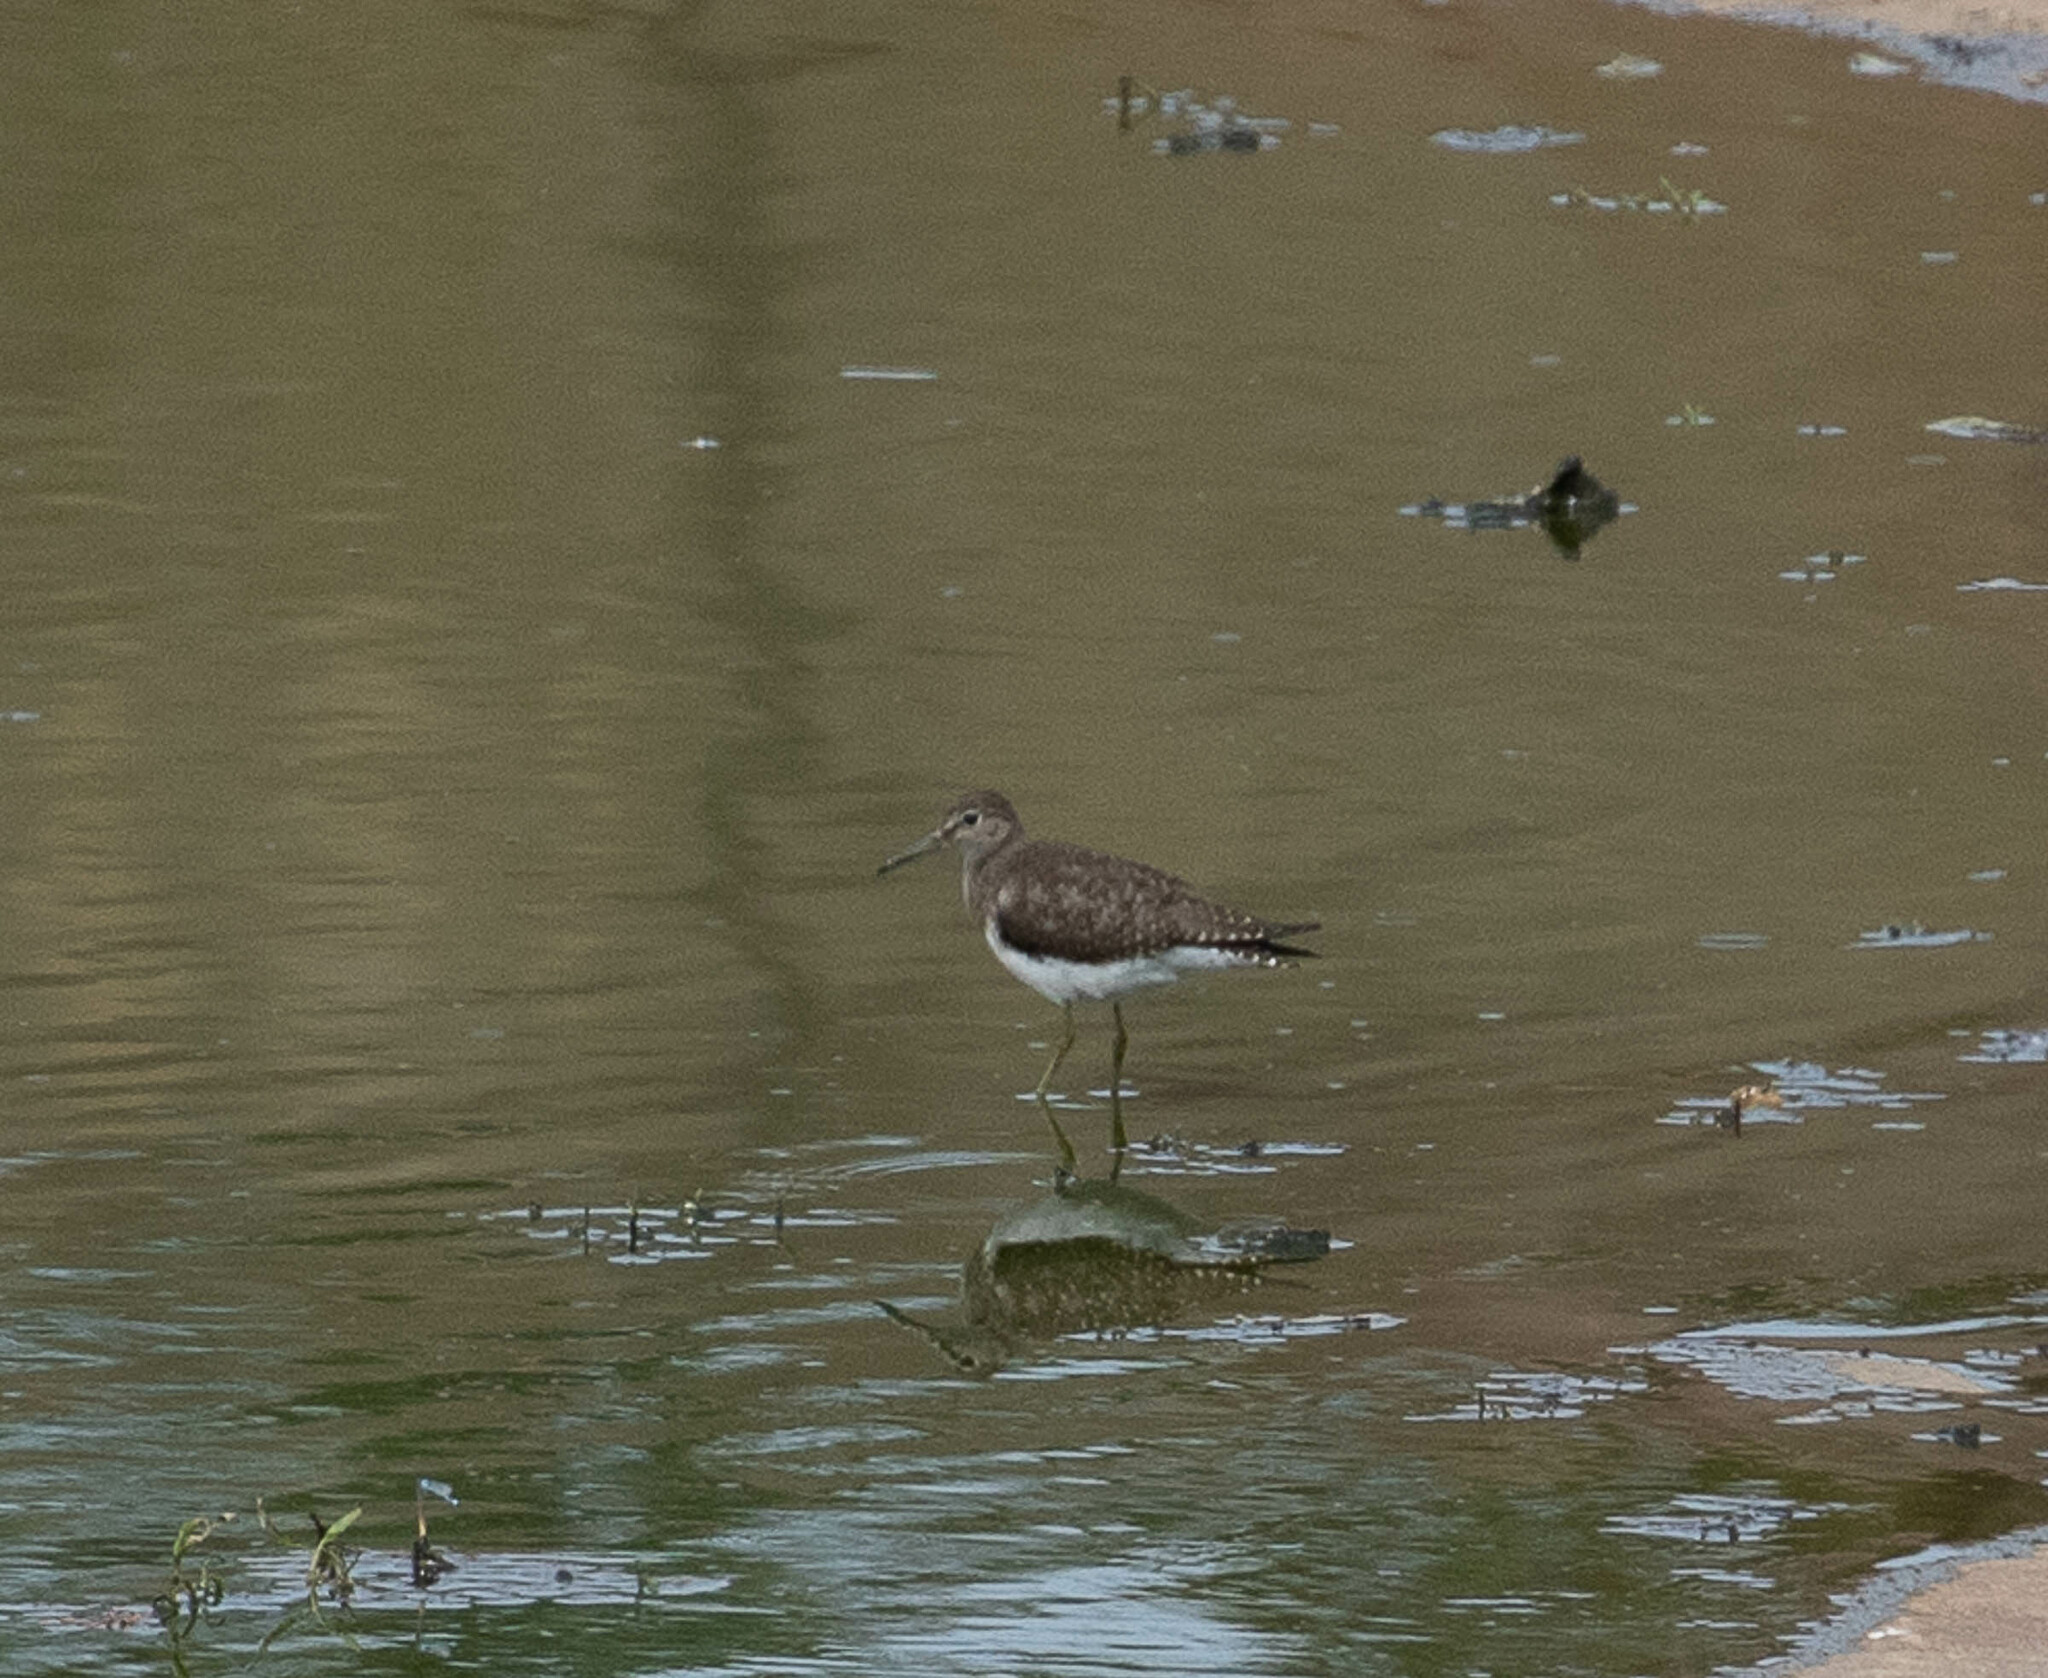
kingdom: Animalia
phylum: Chordata
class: Aves
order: Charadriiformes
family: Scolopacidae
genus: Tringa
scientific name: Tringa solitaria
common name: Solitary sandpiper
